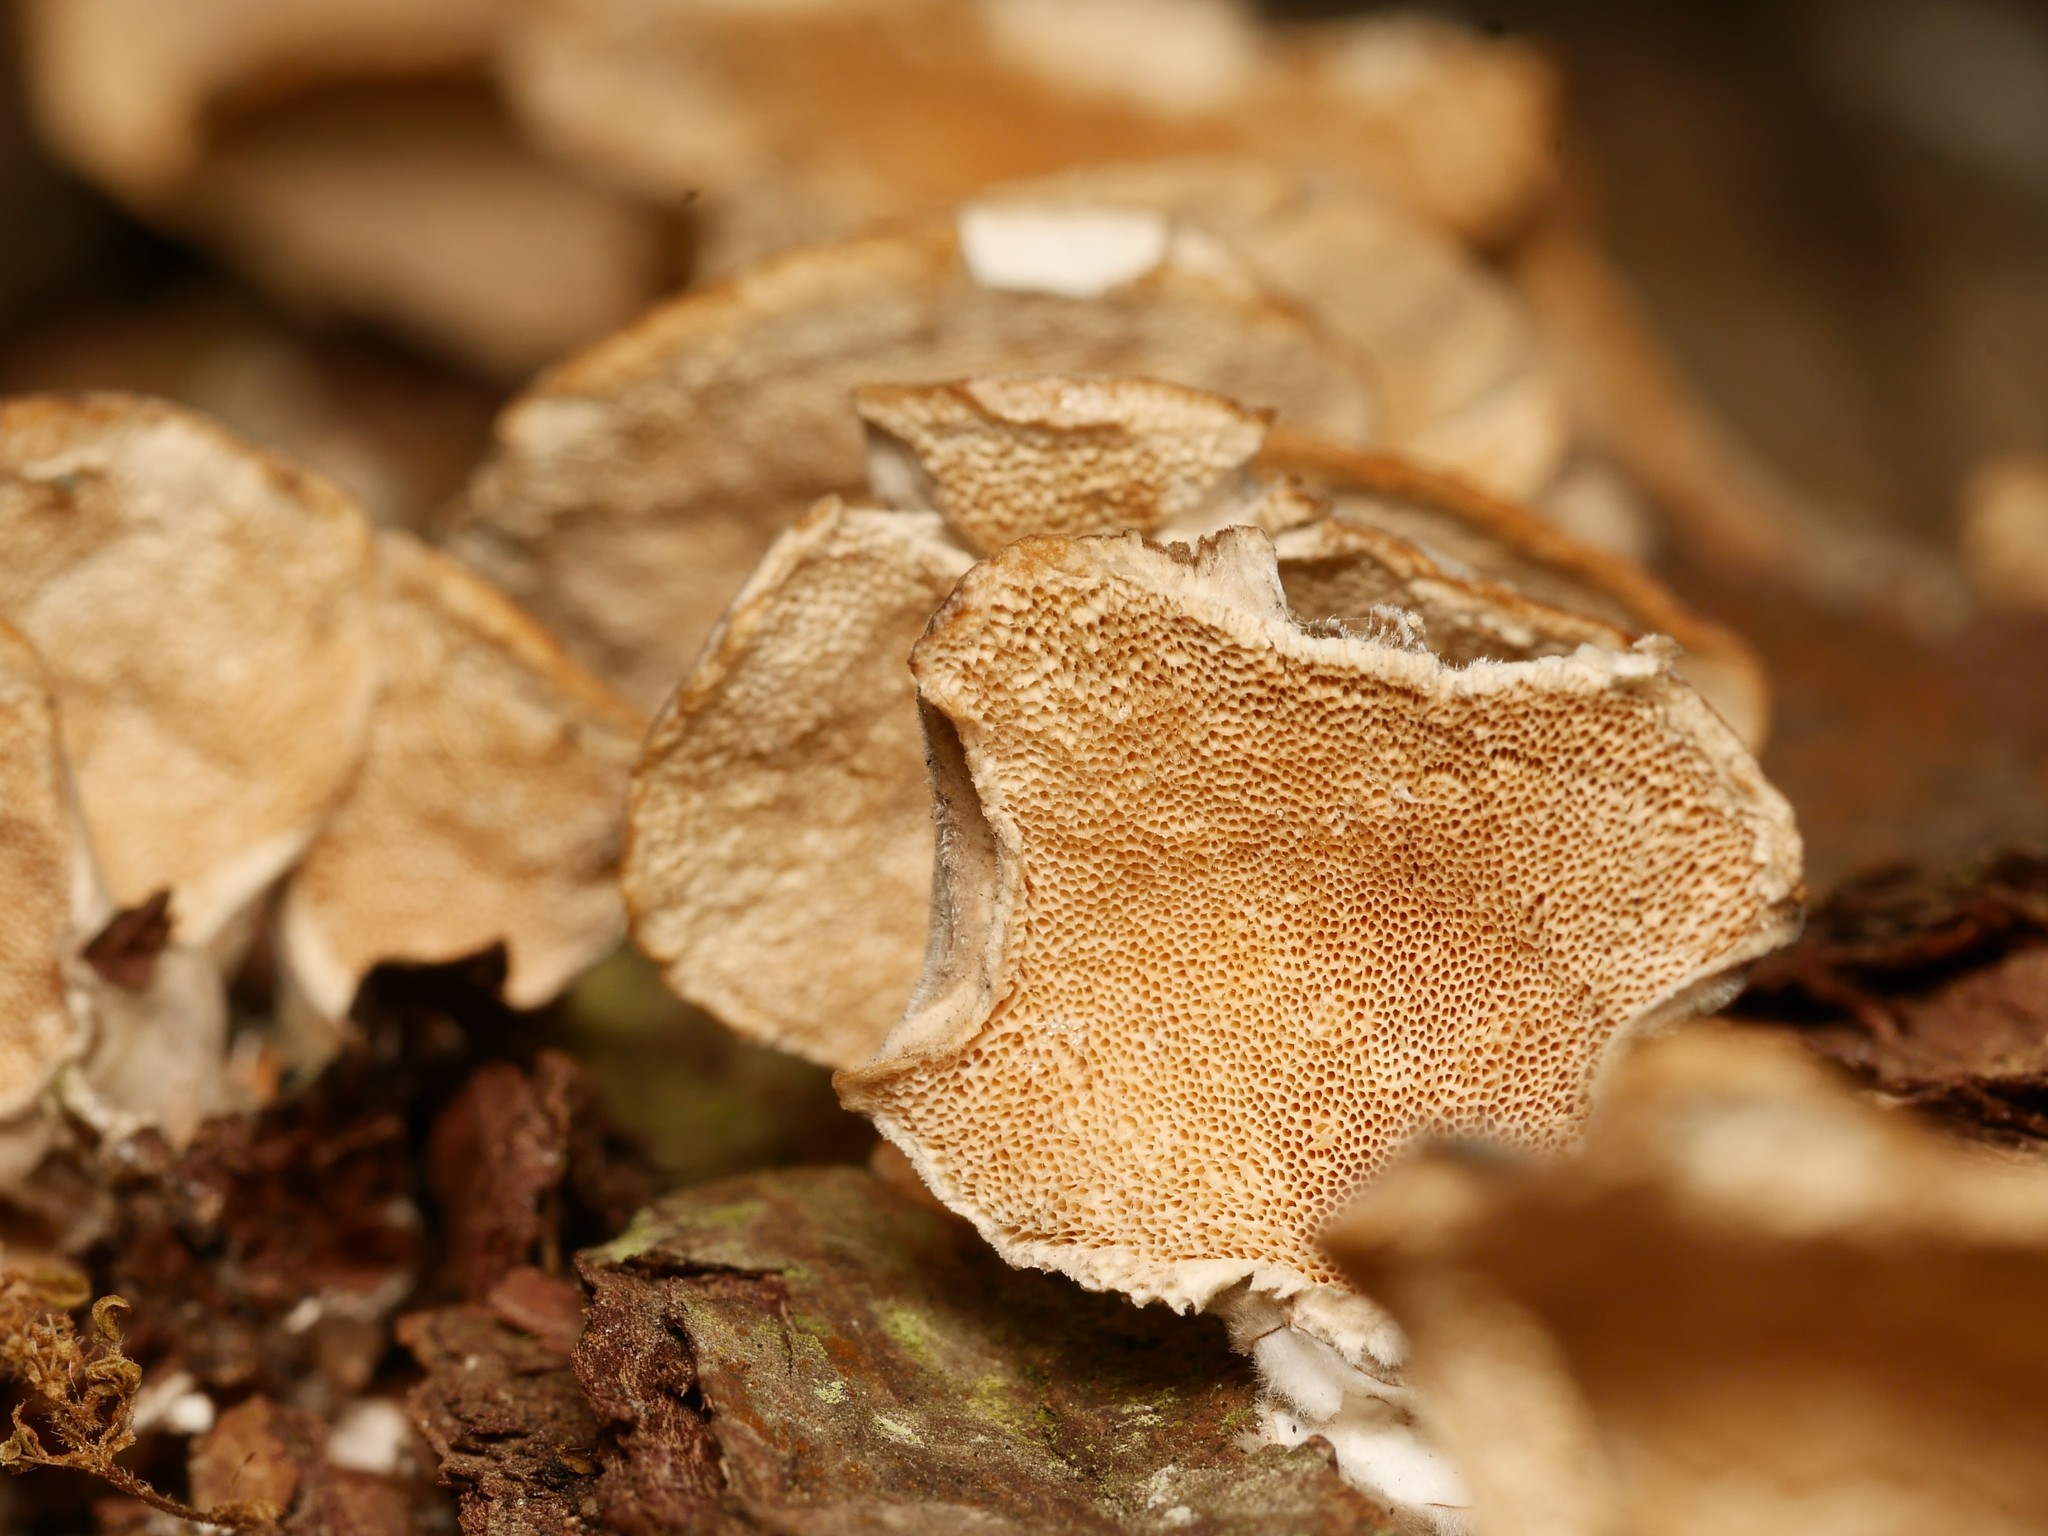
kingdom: Fungi
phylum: Basidiomycota
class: Agaricomycetes
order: Polyporales
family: Polyporaceae
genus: Trametes
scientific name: Trametes versicolor
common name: Turkeytail
